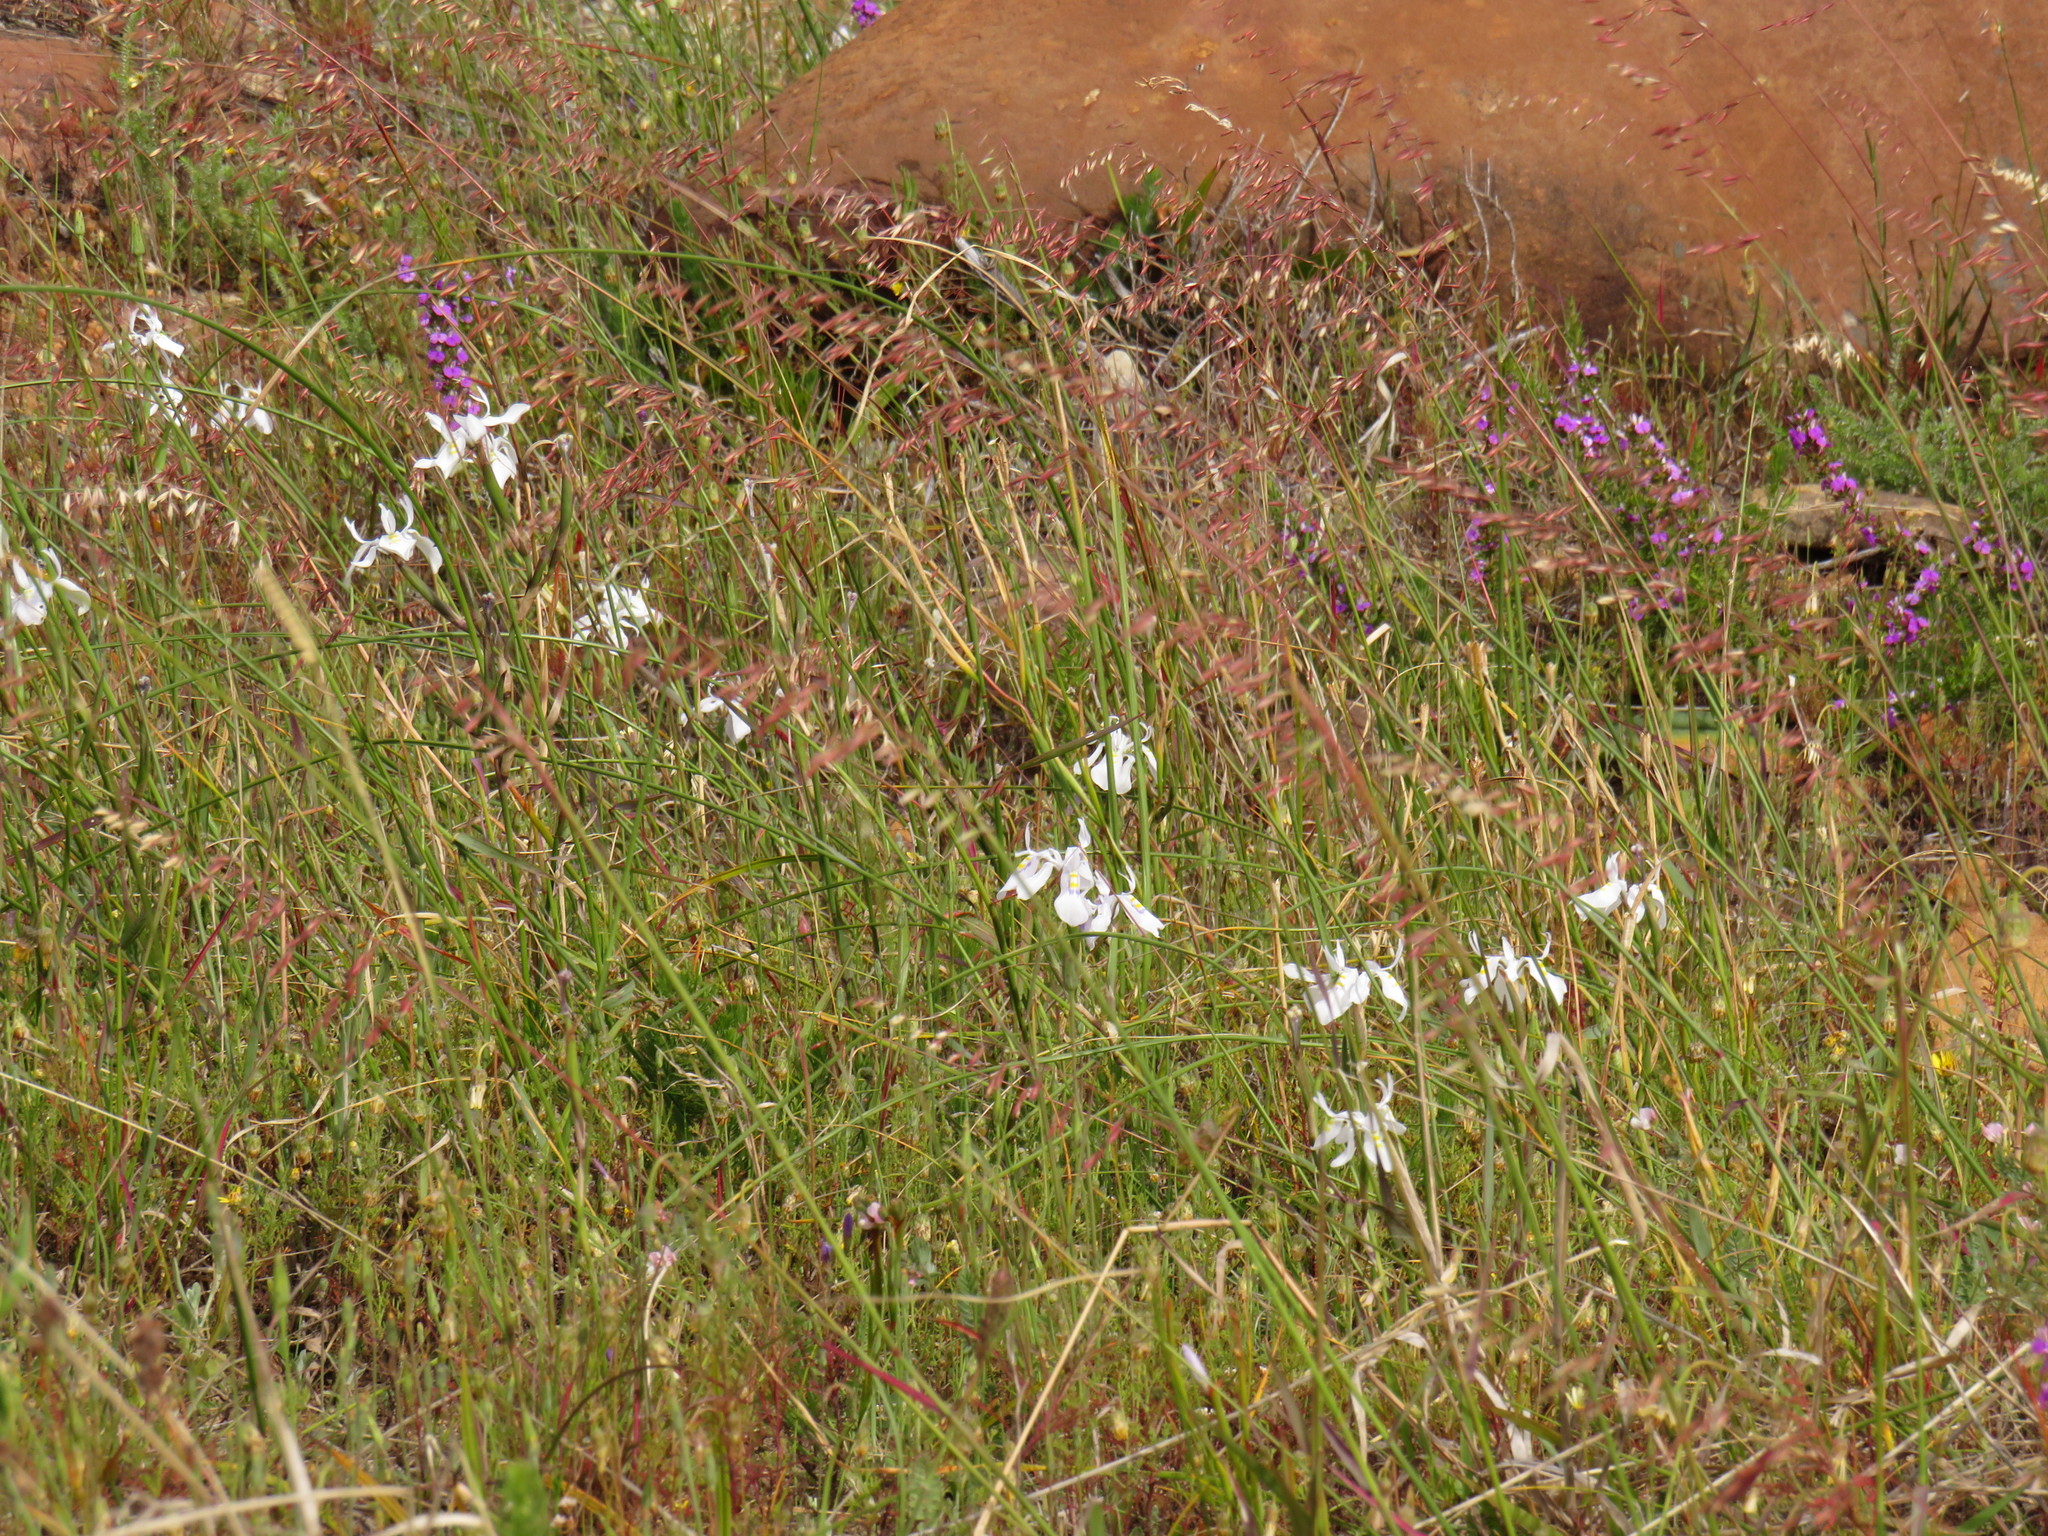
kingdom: Plantae
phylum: Tracheophyta
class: Liliopsida
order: Asparagales
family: Iridaceae
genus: Moraea
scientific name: Moraea fugax
